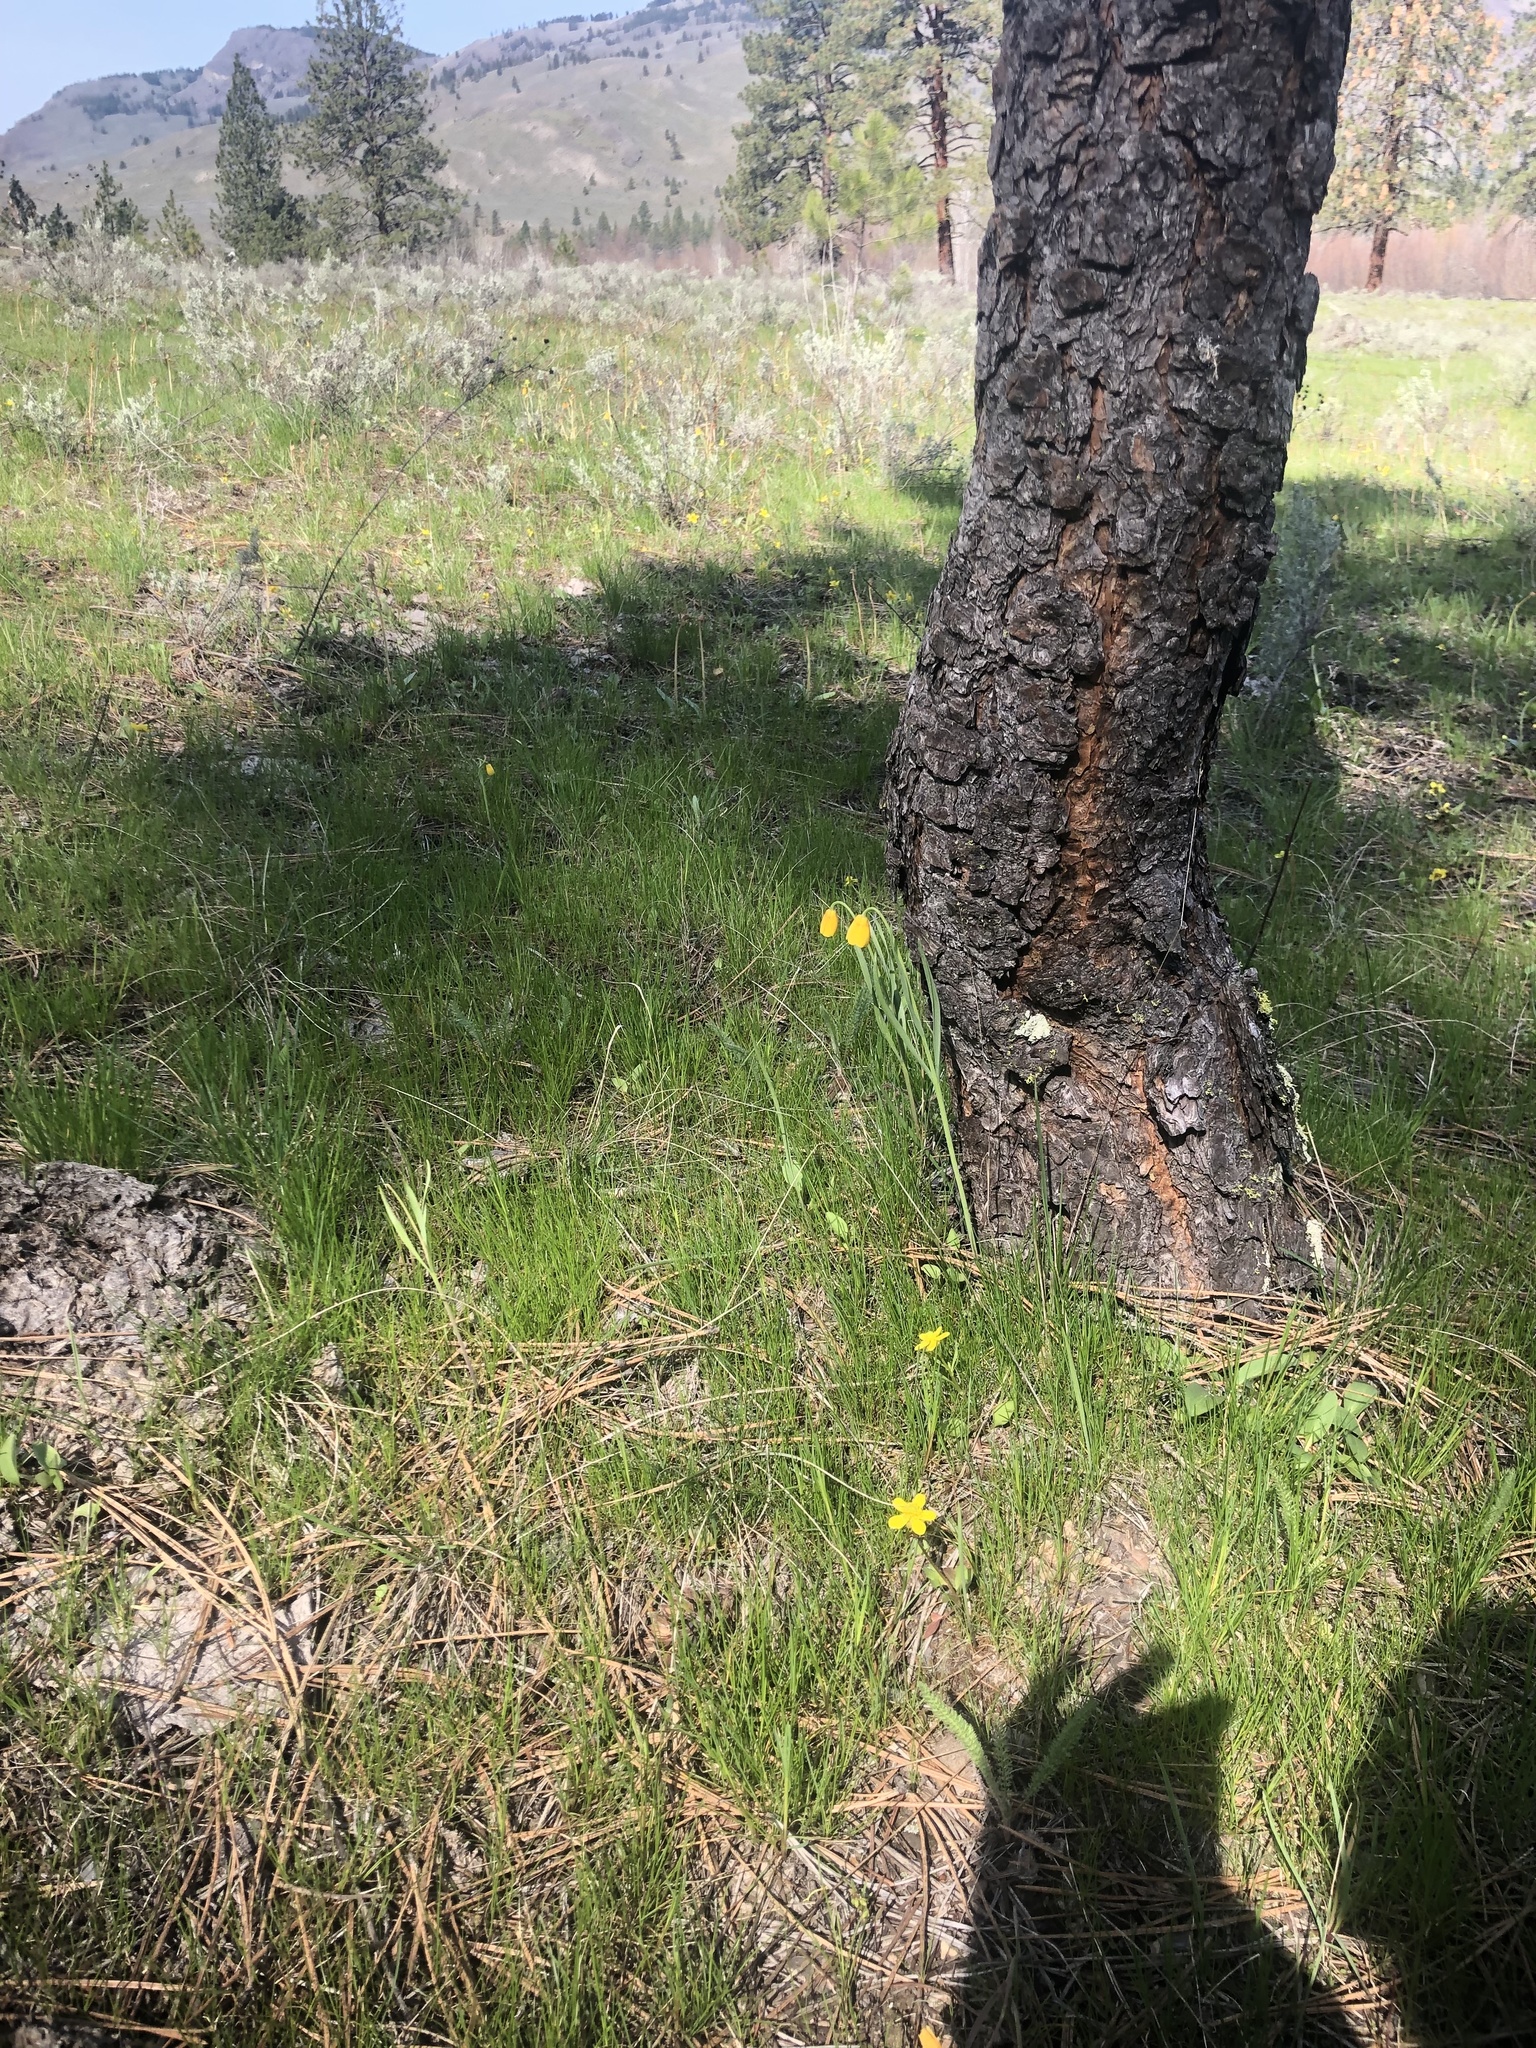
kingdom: Plantae
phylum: Tracheophyta
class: Liliopsida
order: Liliales
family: Liliaceae
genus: Fritillaria
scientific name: Fritillaria pudica
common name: Yellow fritillary
